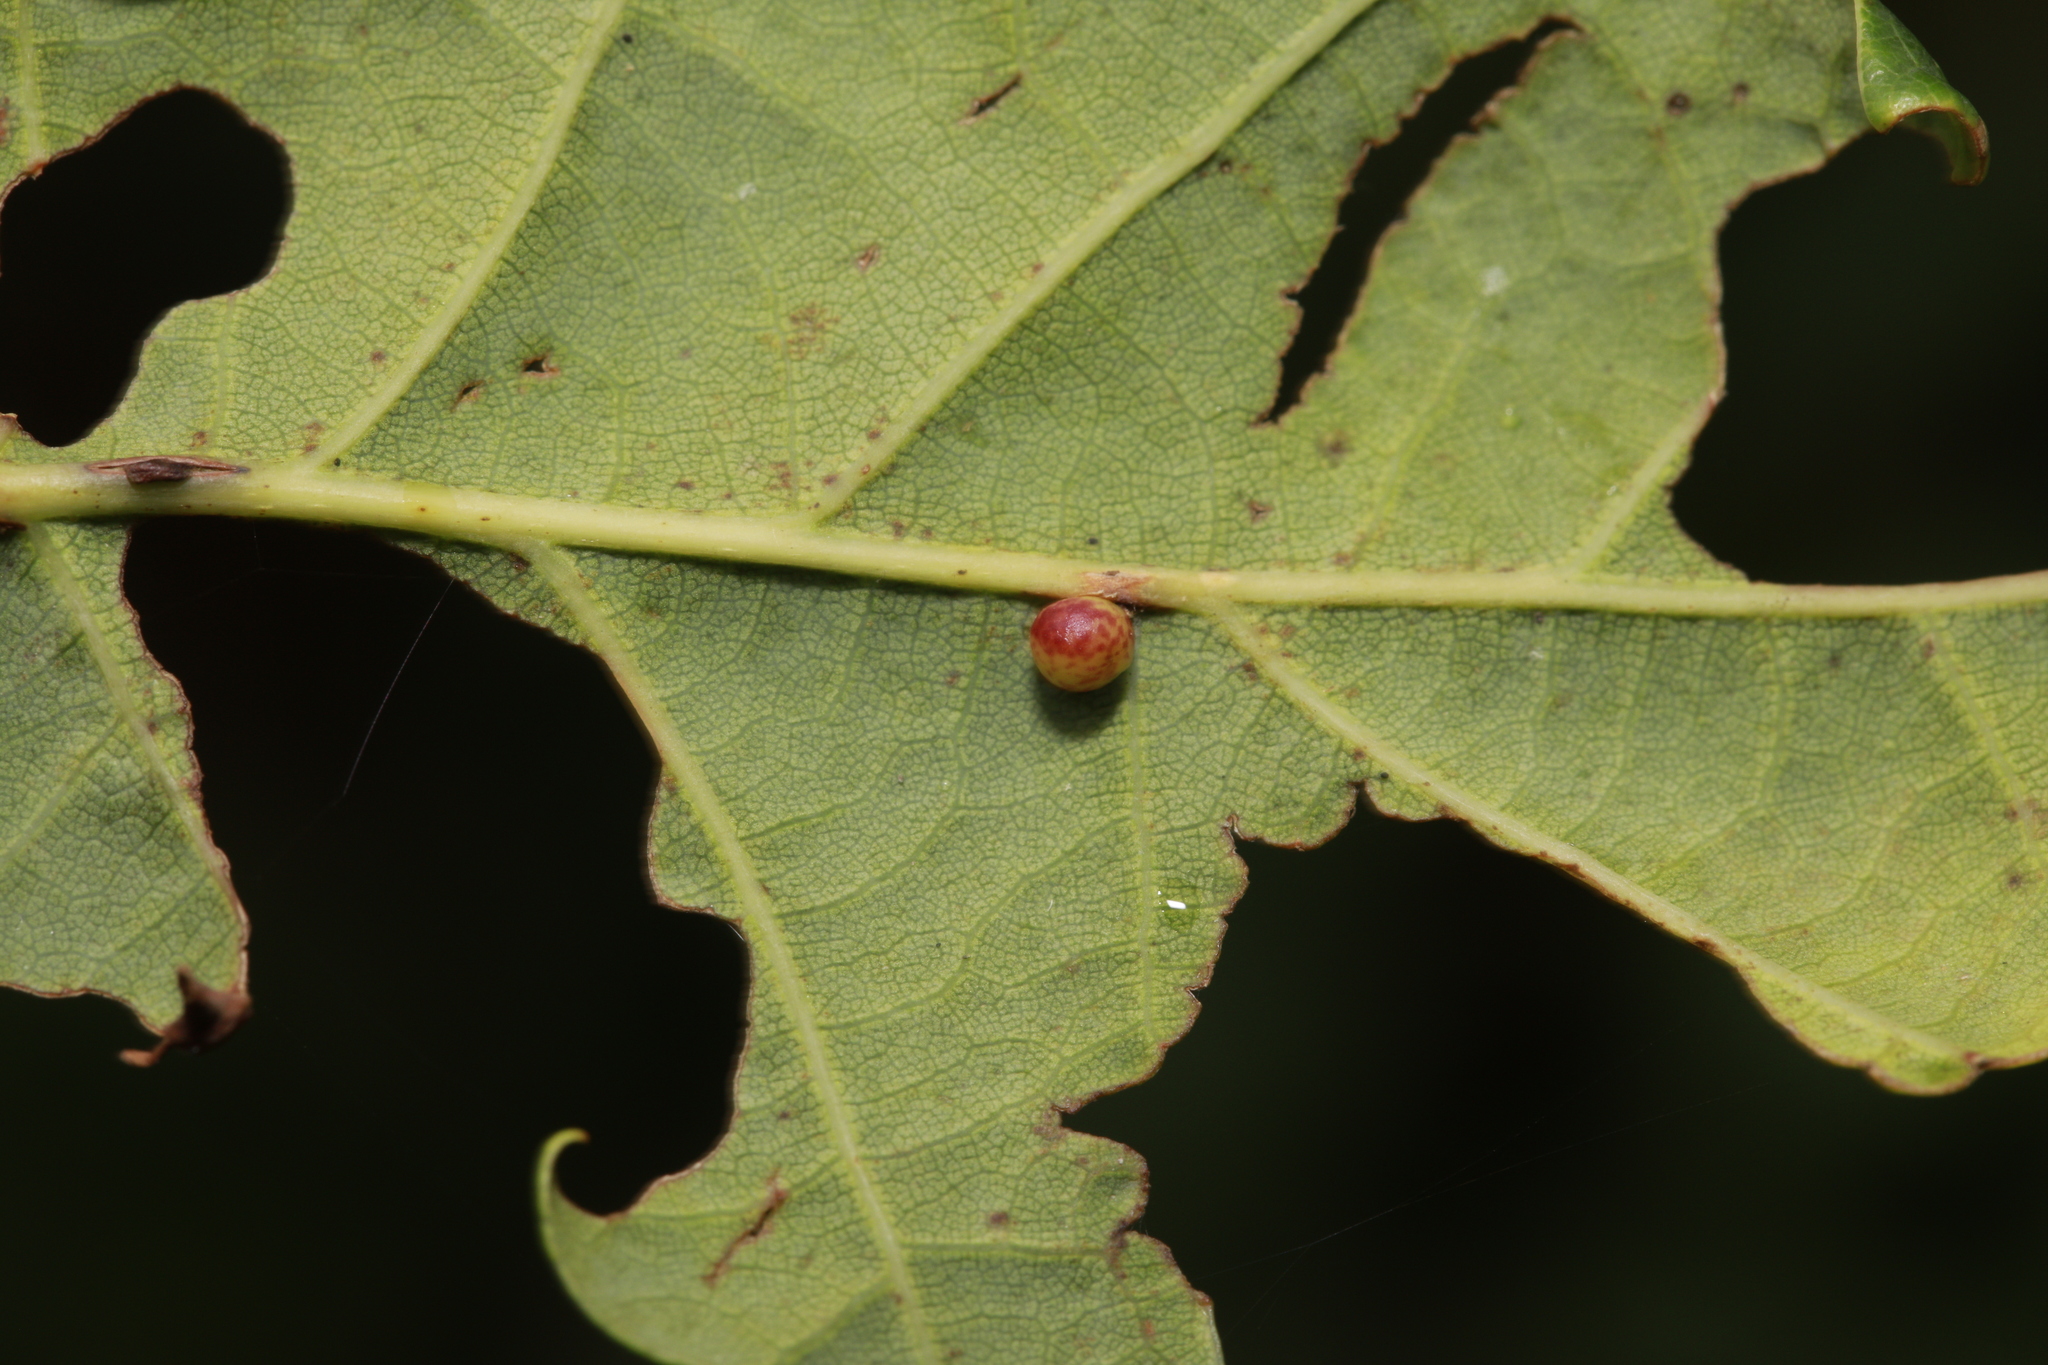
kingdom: Animalia
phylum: Arthropoda
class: Insecta
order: Hymenoptera
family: Cynipidae
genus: Neuroterus
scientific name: Neuroterus anthracinus
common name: Oyster gall
